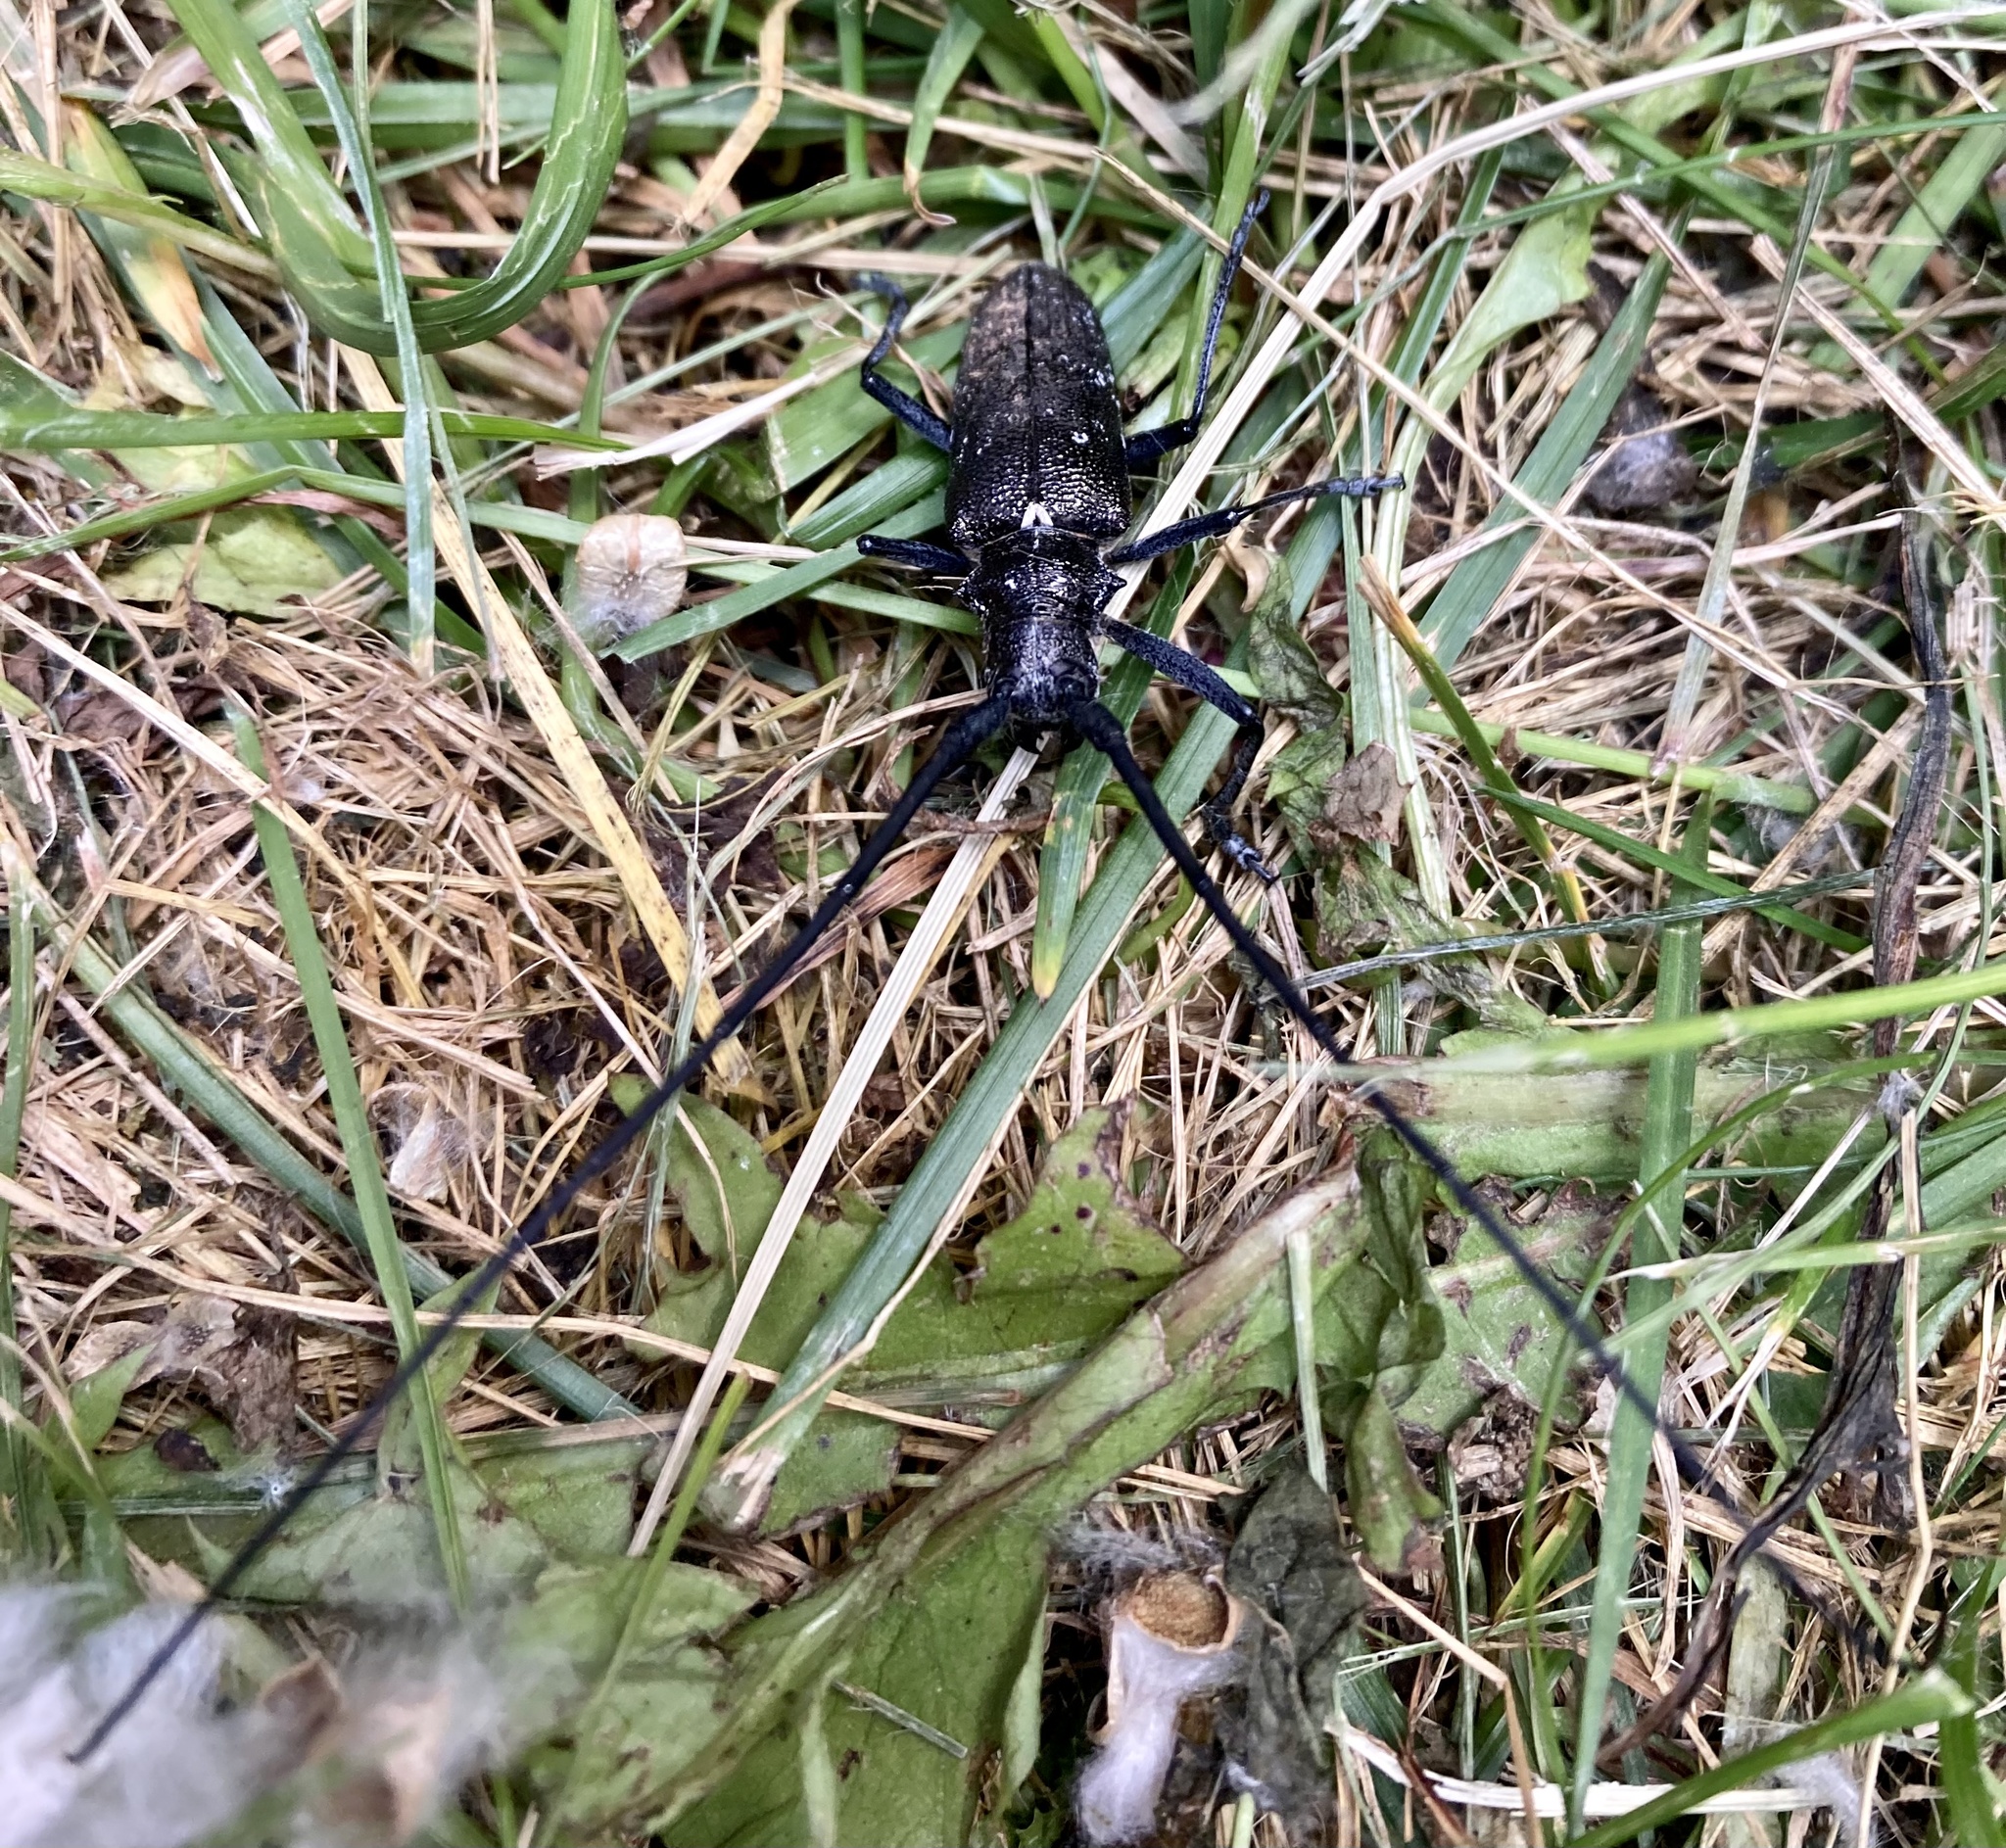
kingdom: Animalia
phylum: Arthropoda
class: Insecta
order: Coleoptera
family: Cerambycidae
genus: Monochamus
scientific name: Monochamus scutellatus
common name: White-spotted sawyer beetle
